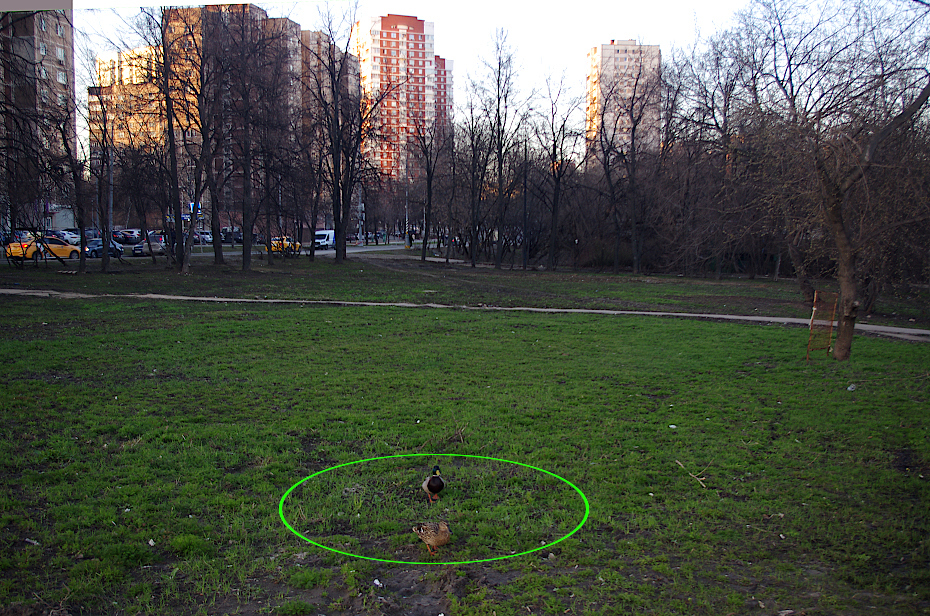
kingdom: Animalia
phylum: Chordata
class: Aves
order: Anseriformes
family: Anatidae
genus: Anas
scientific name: Anas platyrhynchos
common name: Mallard
